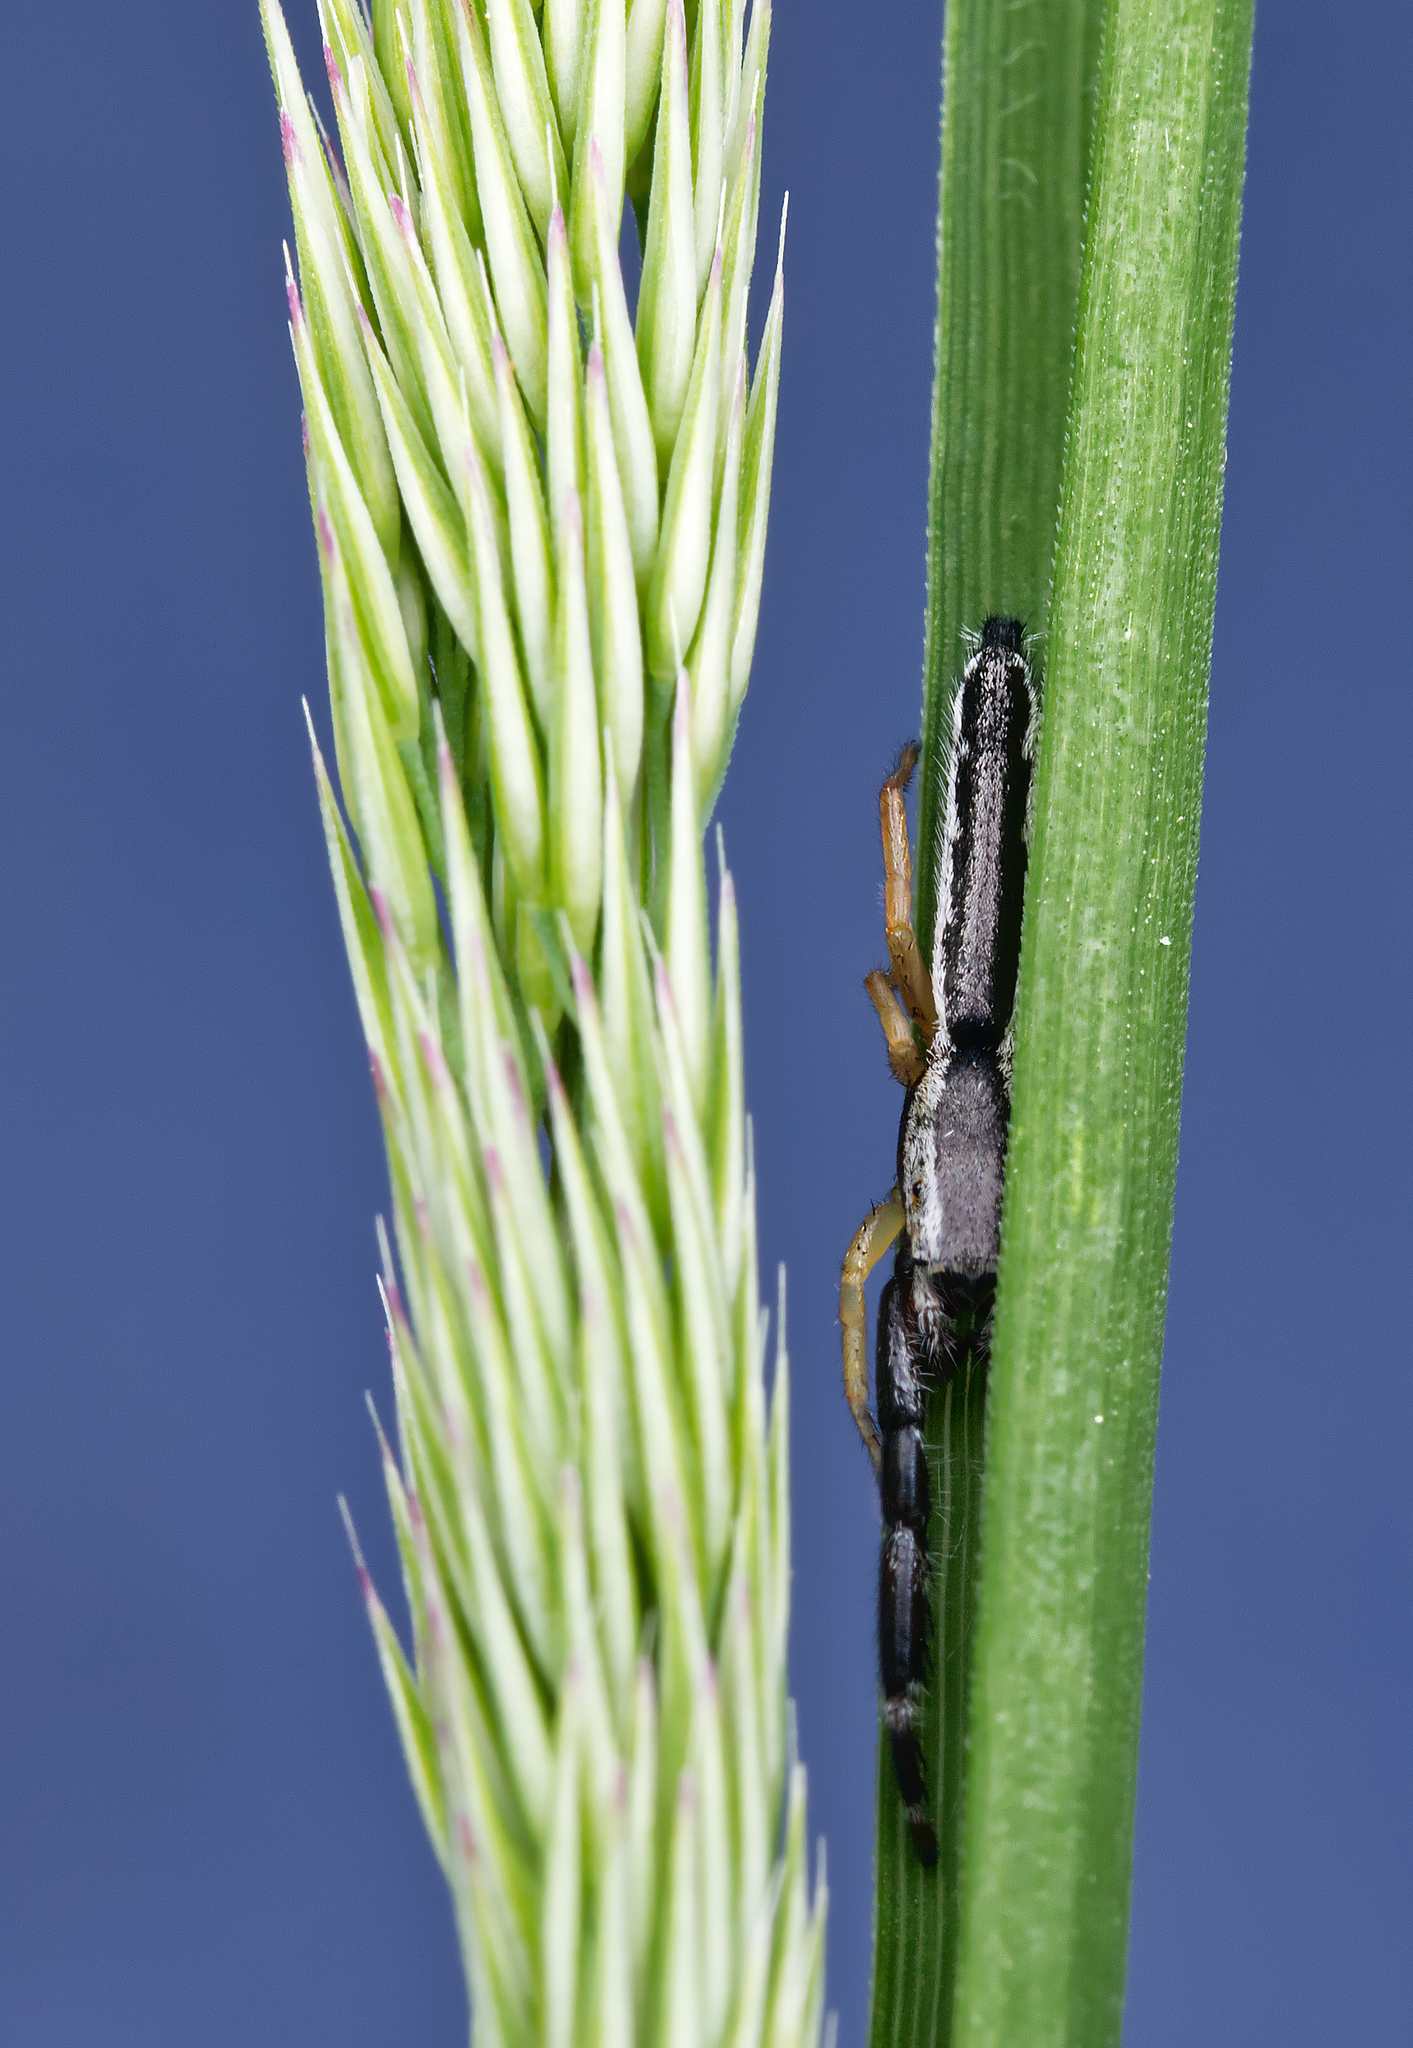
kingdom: Animalia
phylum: Arthropoda
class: Arachnida
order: Araneae
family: Salticidae
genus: Marpissa
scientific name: Marpissa pikei
